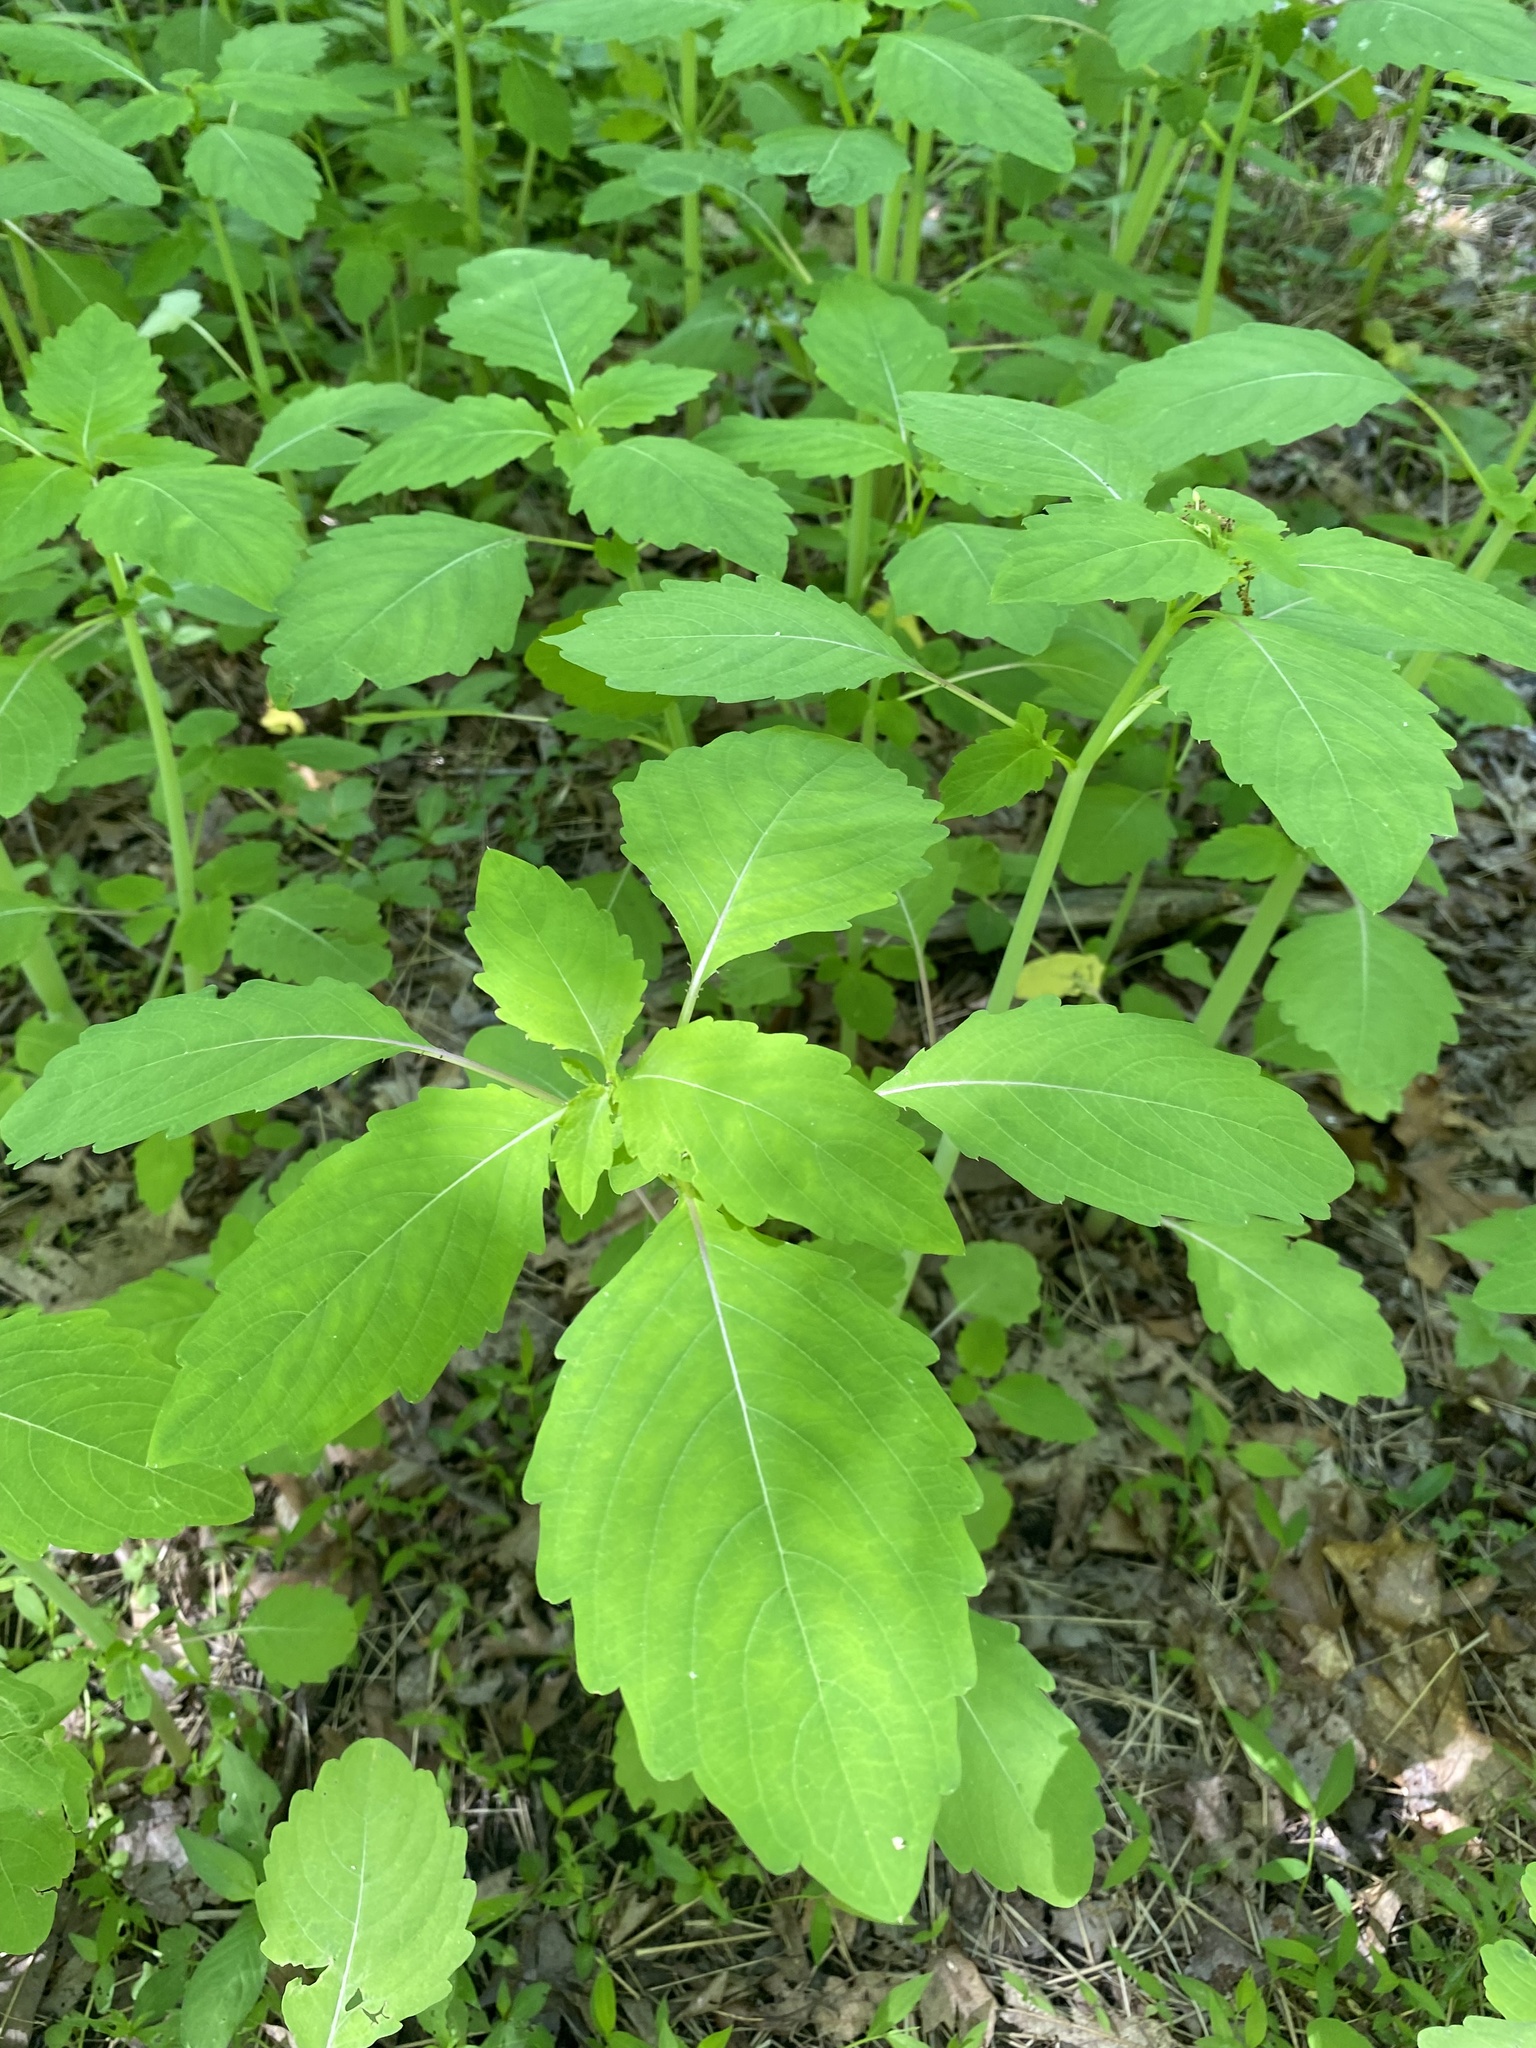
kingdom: Plantae
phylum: Tracheophyta
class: Magnoliopsida
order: Ericales
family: Balsaminaceae
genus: Impatiens
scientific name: Impatiens capensis
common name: Orange balsam
